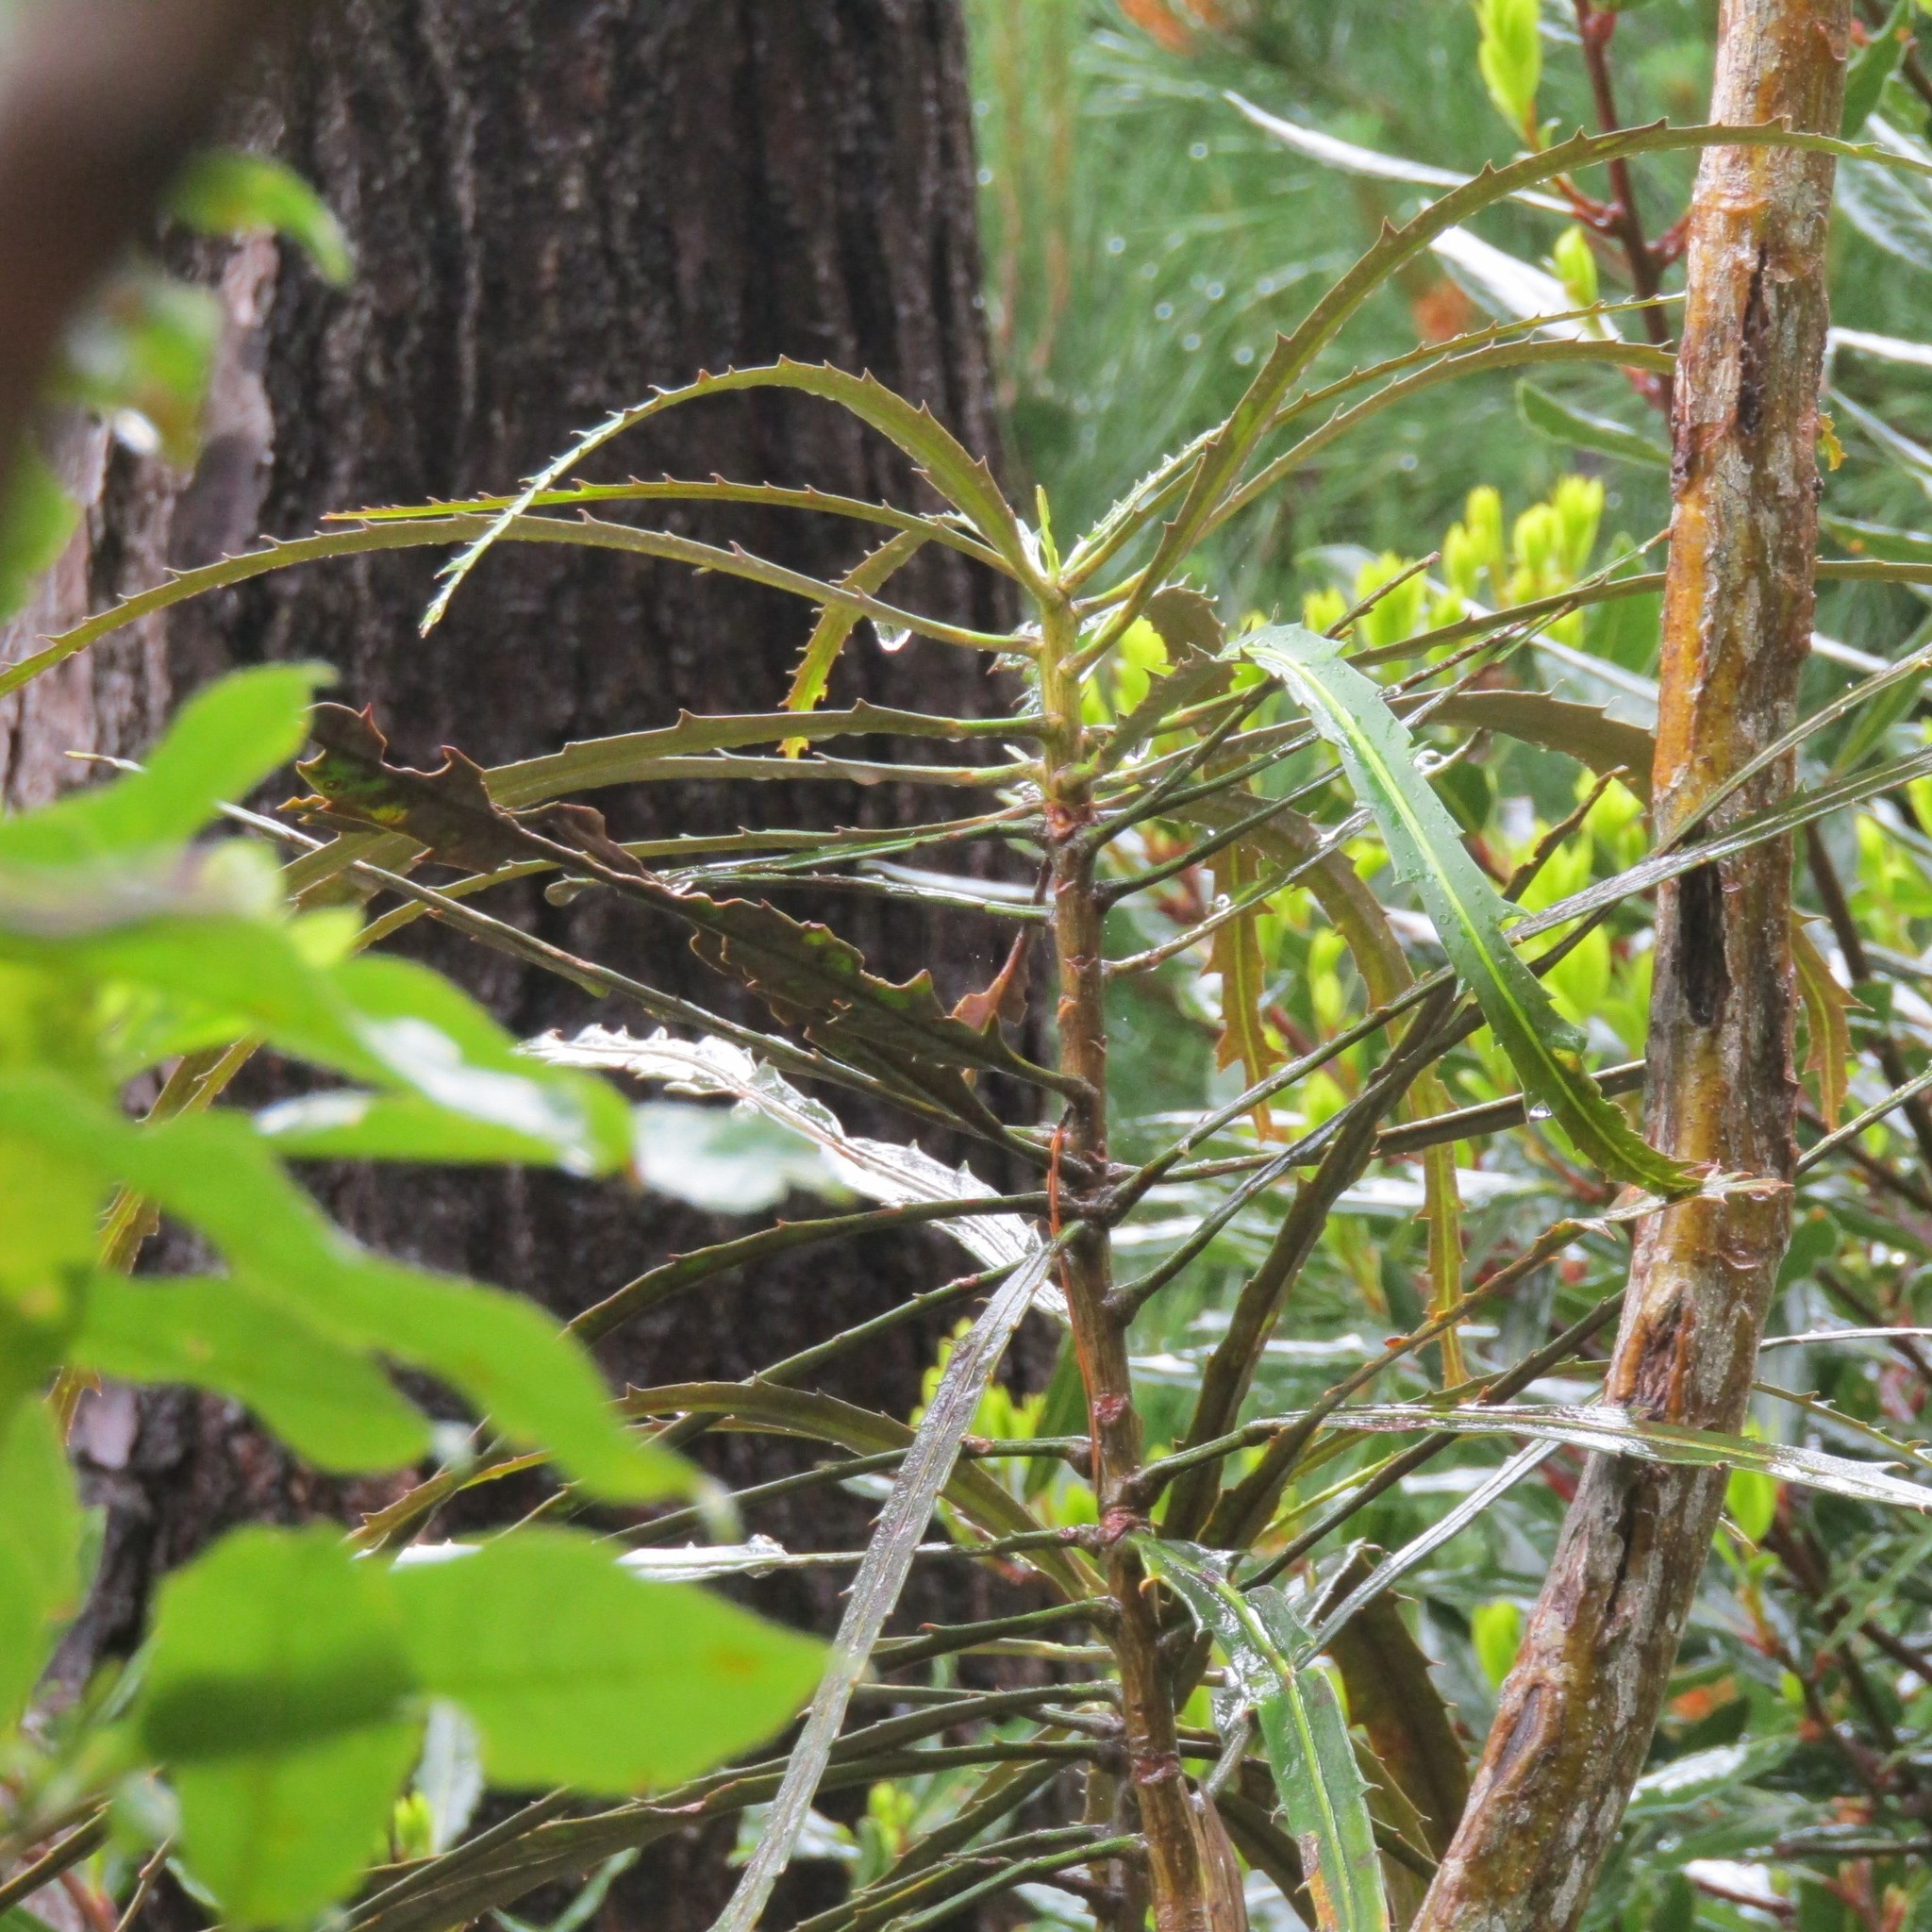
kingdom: Plantae
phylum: Tracheophyta
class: Magnoliopsida
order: Apiales
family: Araliaceae
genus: Pseudopanax
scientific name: Pseudopanax crassifolius
